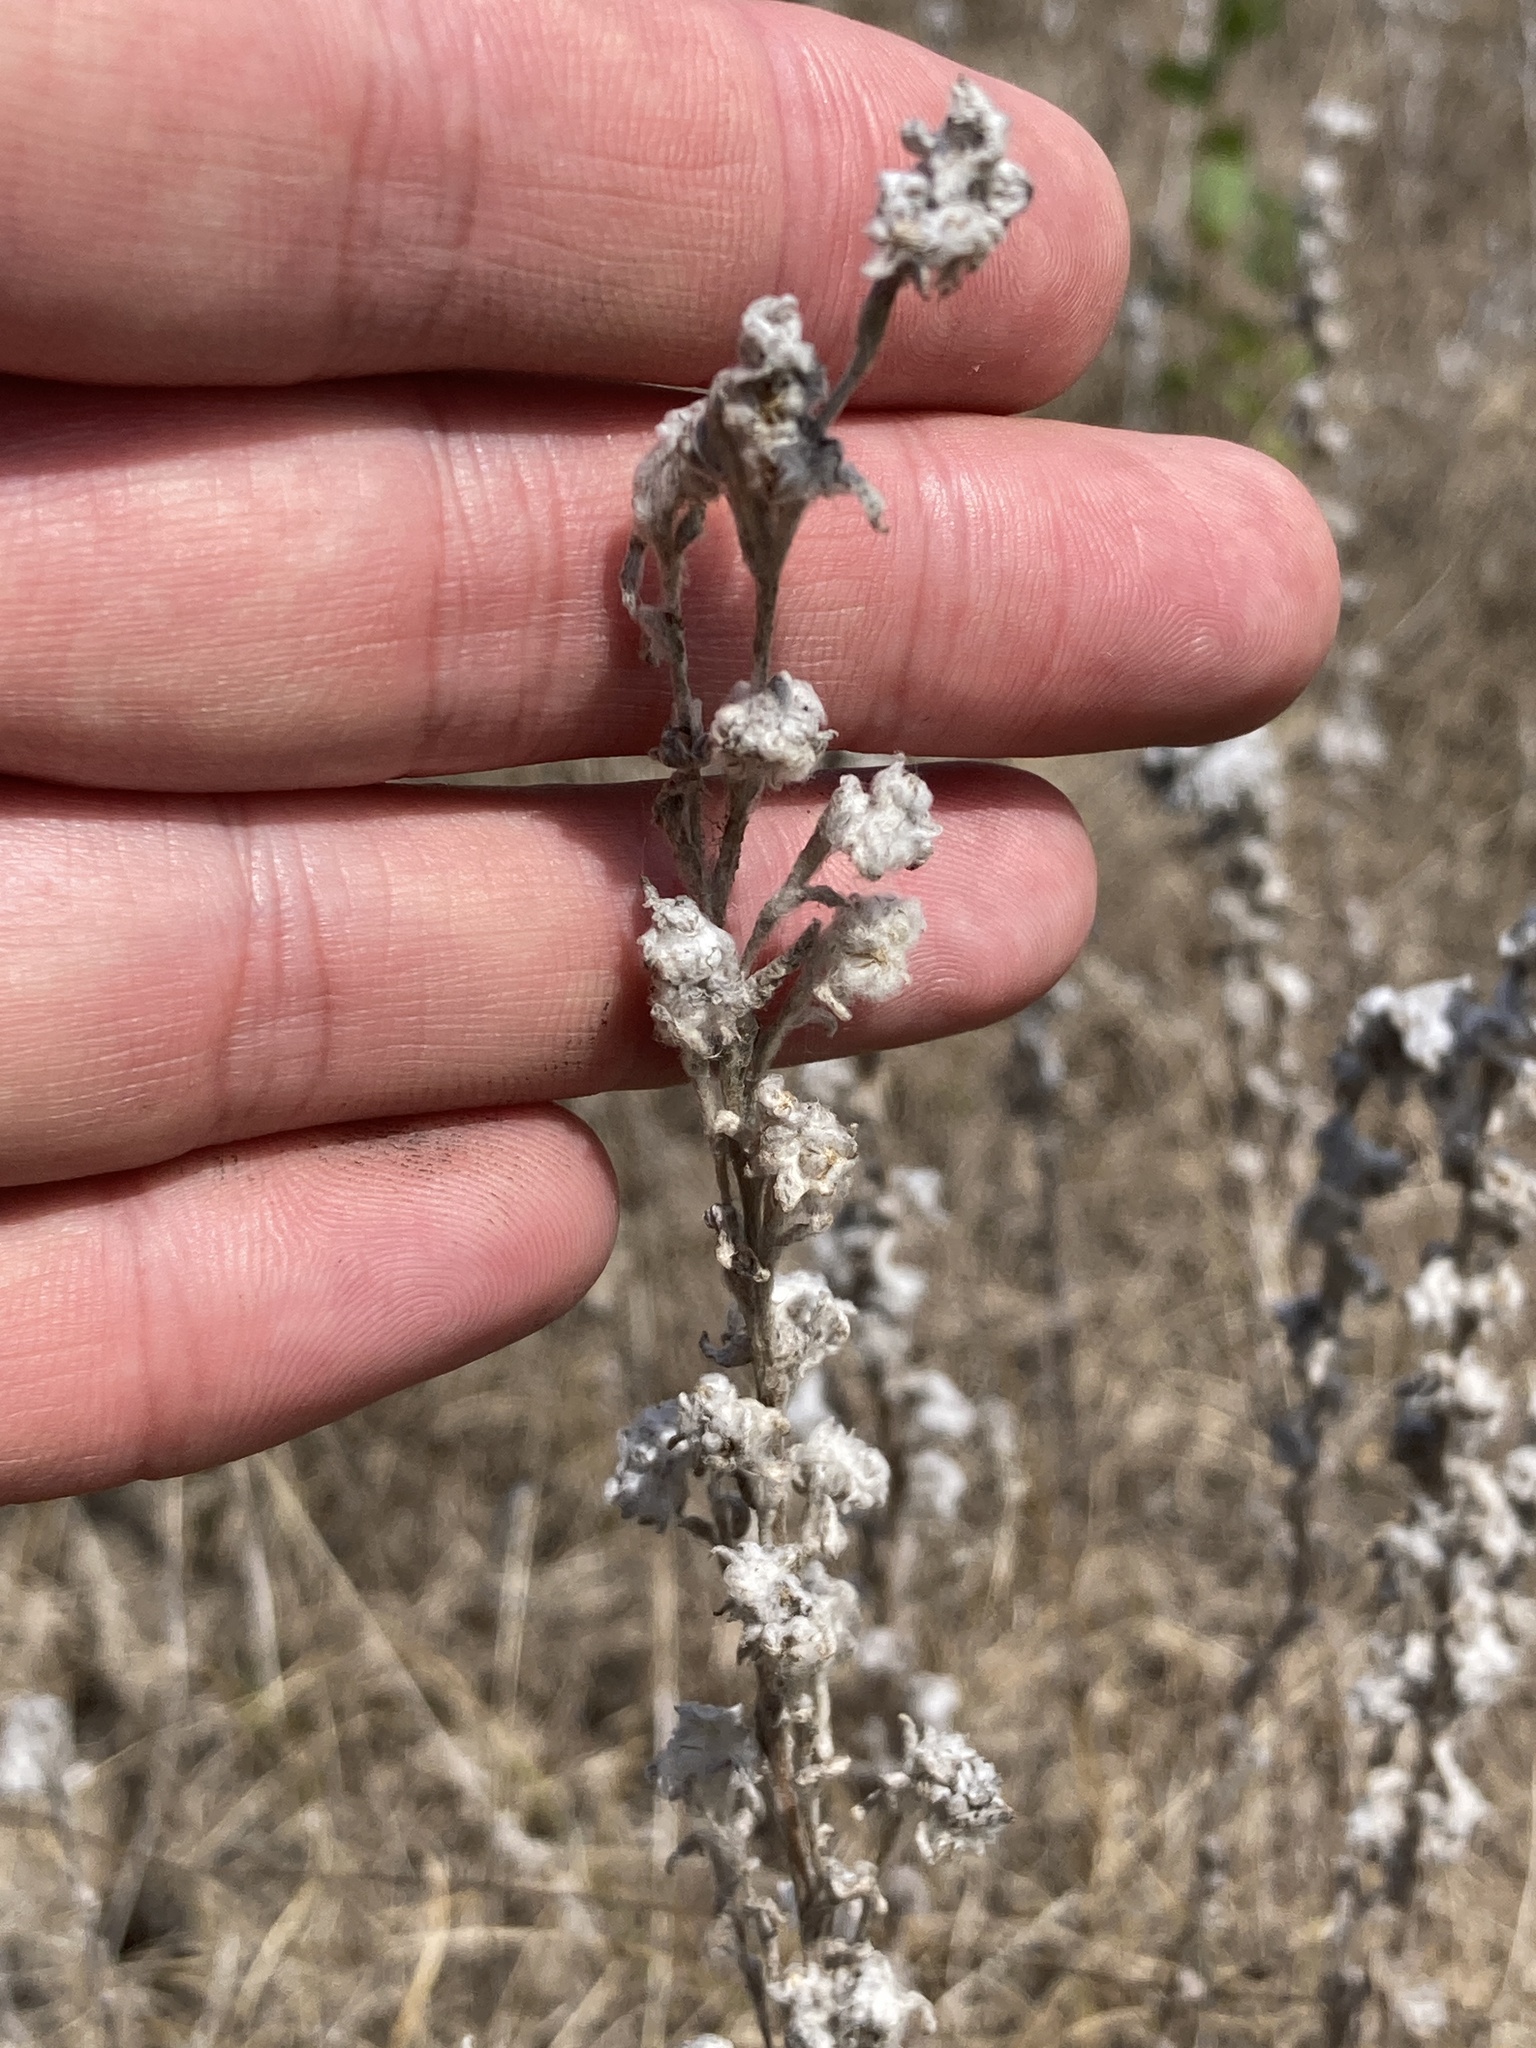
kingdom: Plantae
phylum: Tracheophyta
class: Magnoliopsida
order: Asterales
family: Asteraceae
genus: Filago
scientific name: Filago arvensis
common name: Field cudweed
